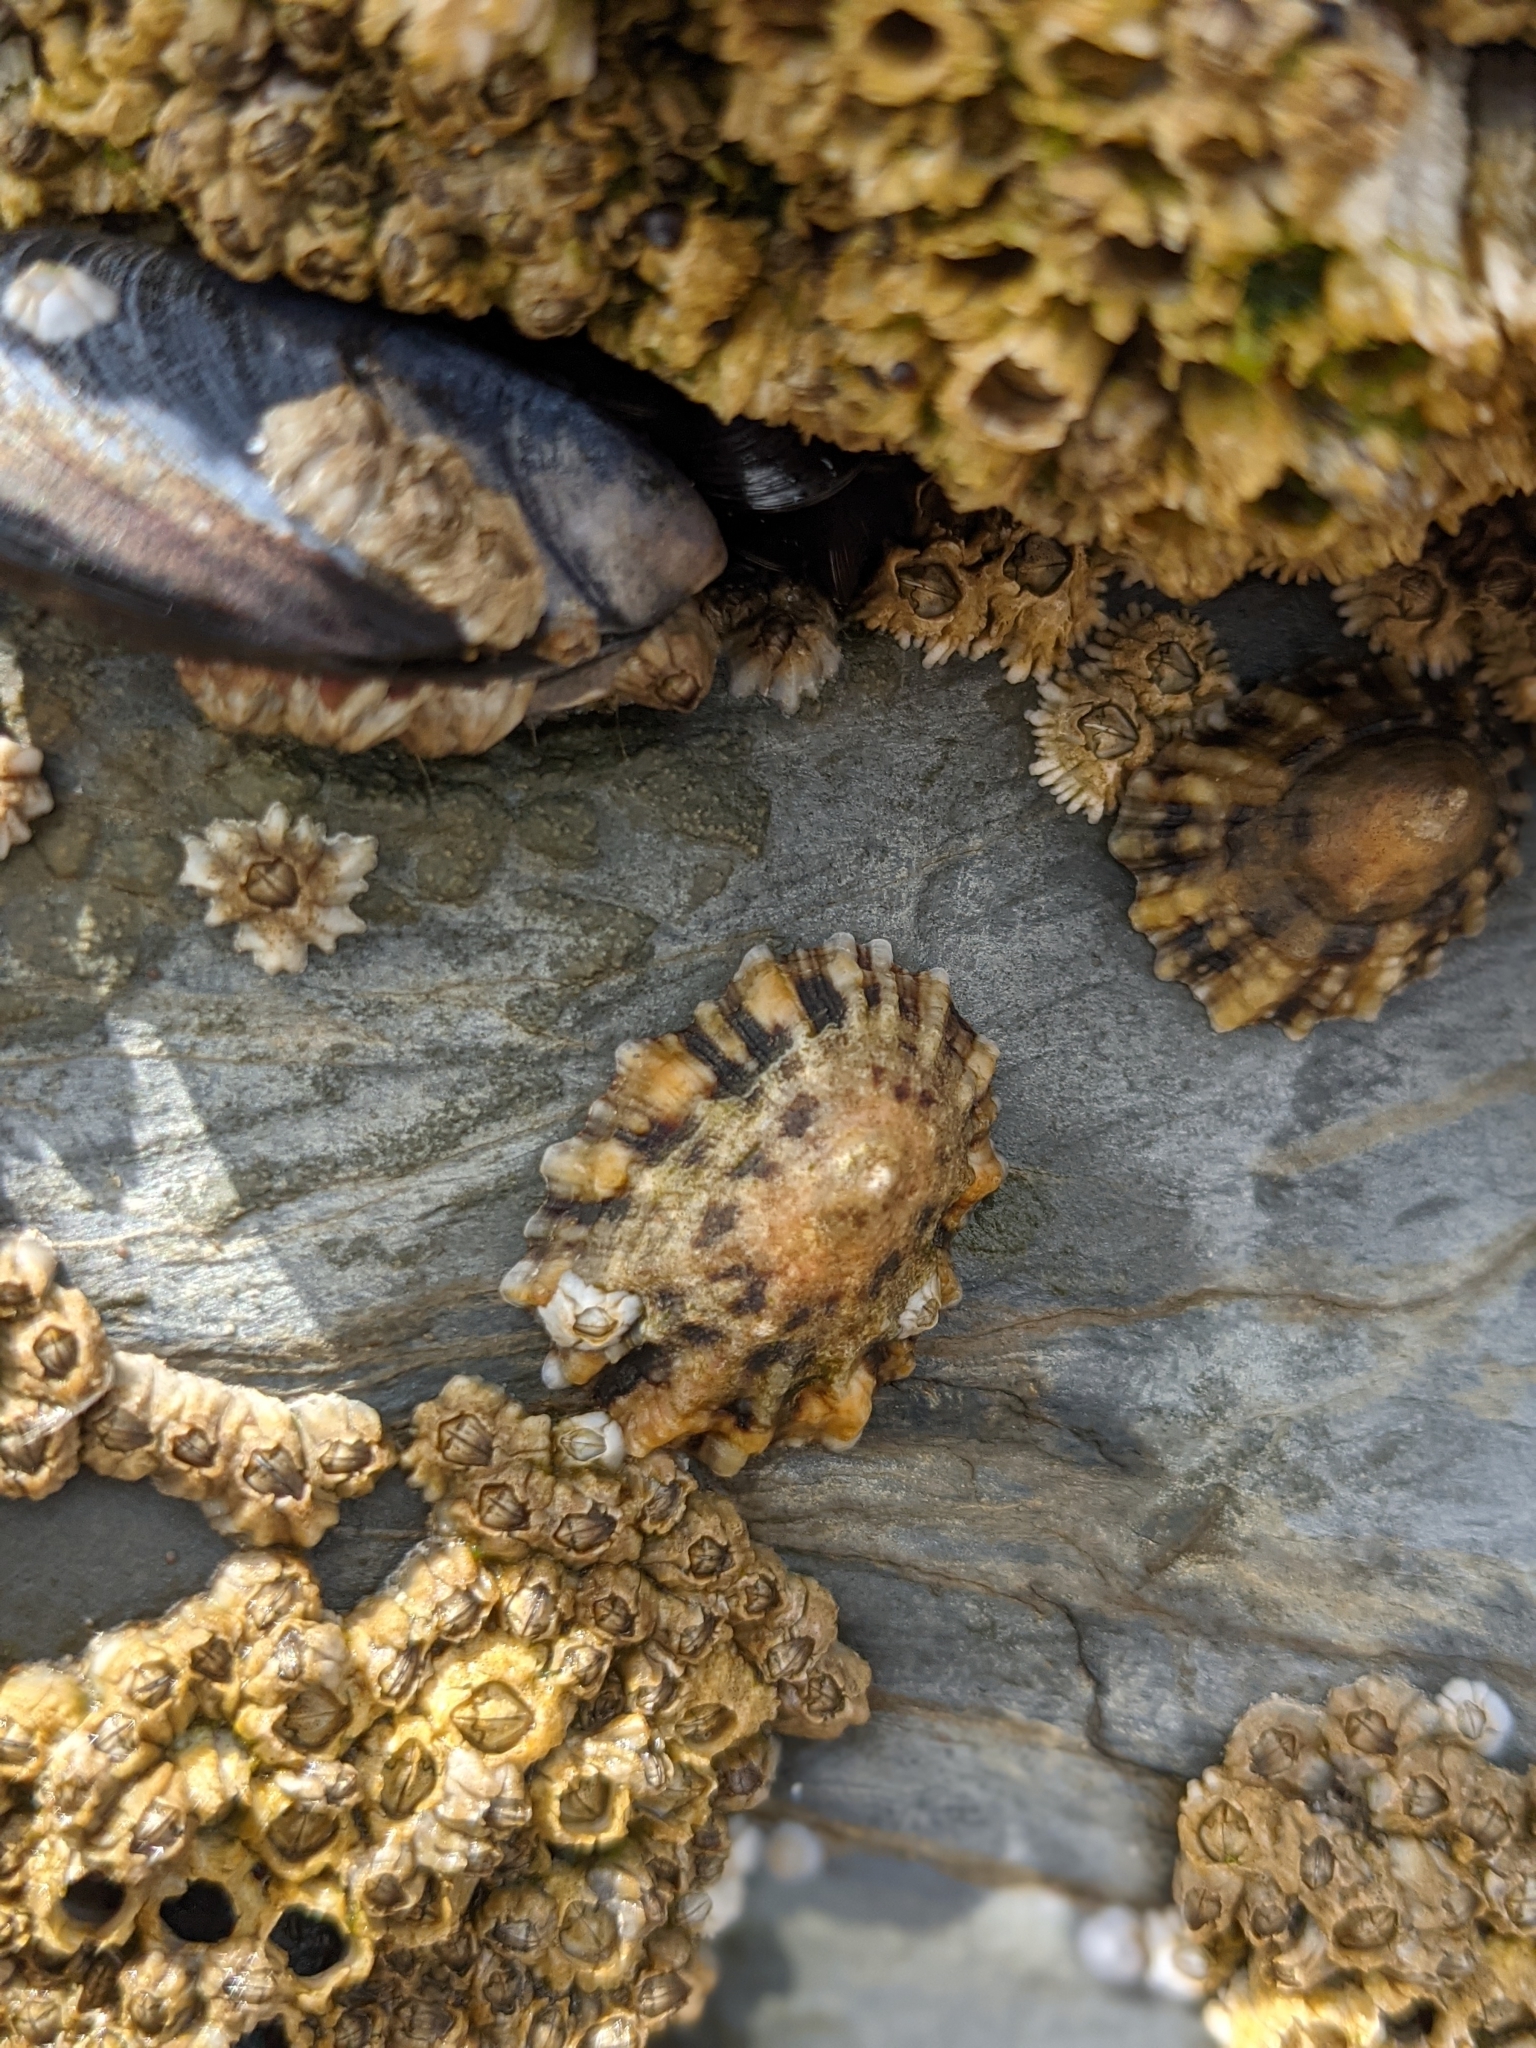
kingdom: Animalia
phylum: Mollusca
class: Gastropoda
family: Patellidae
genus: Patella
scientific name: Patella vulgata
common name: Common limpet
